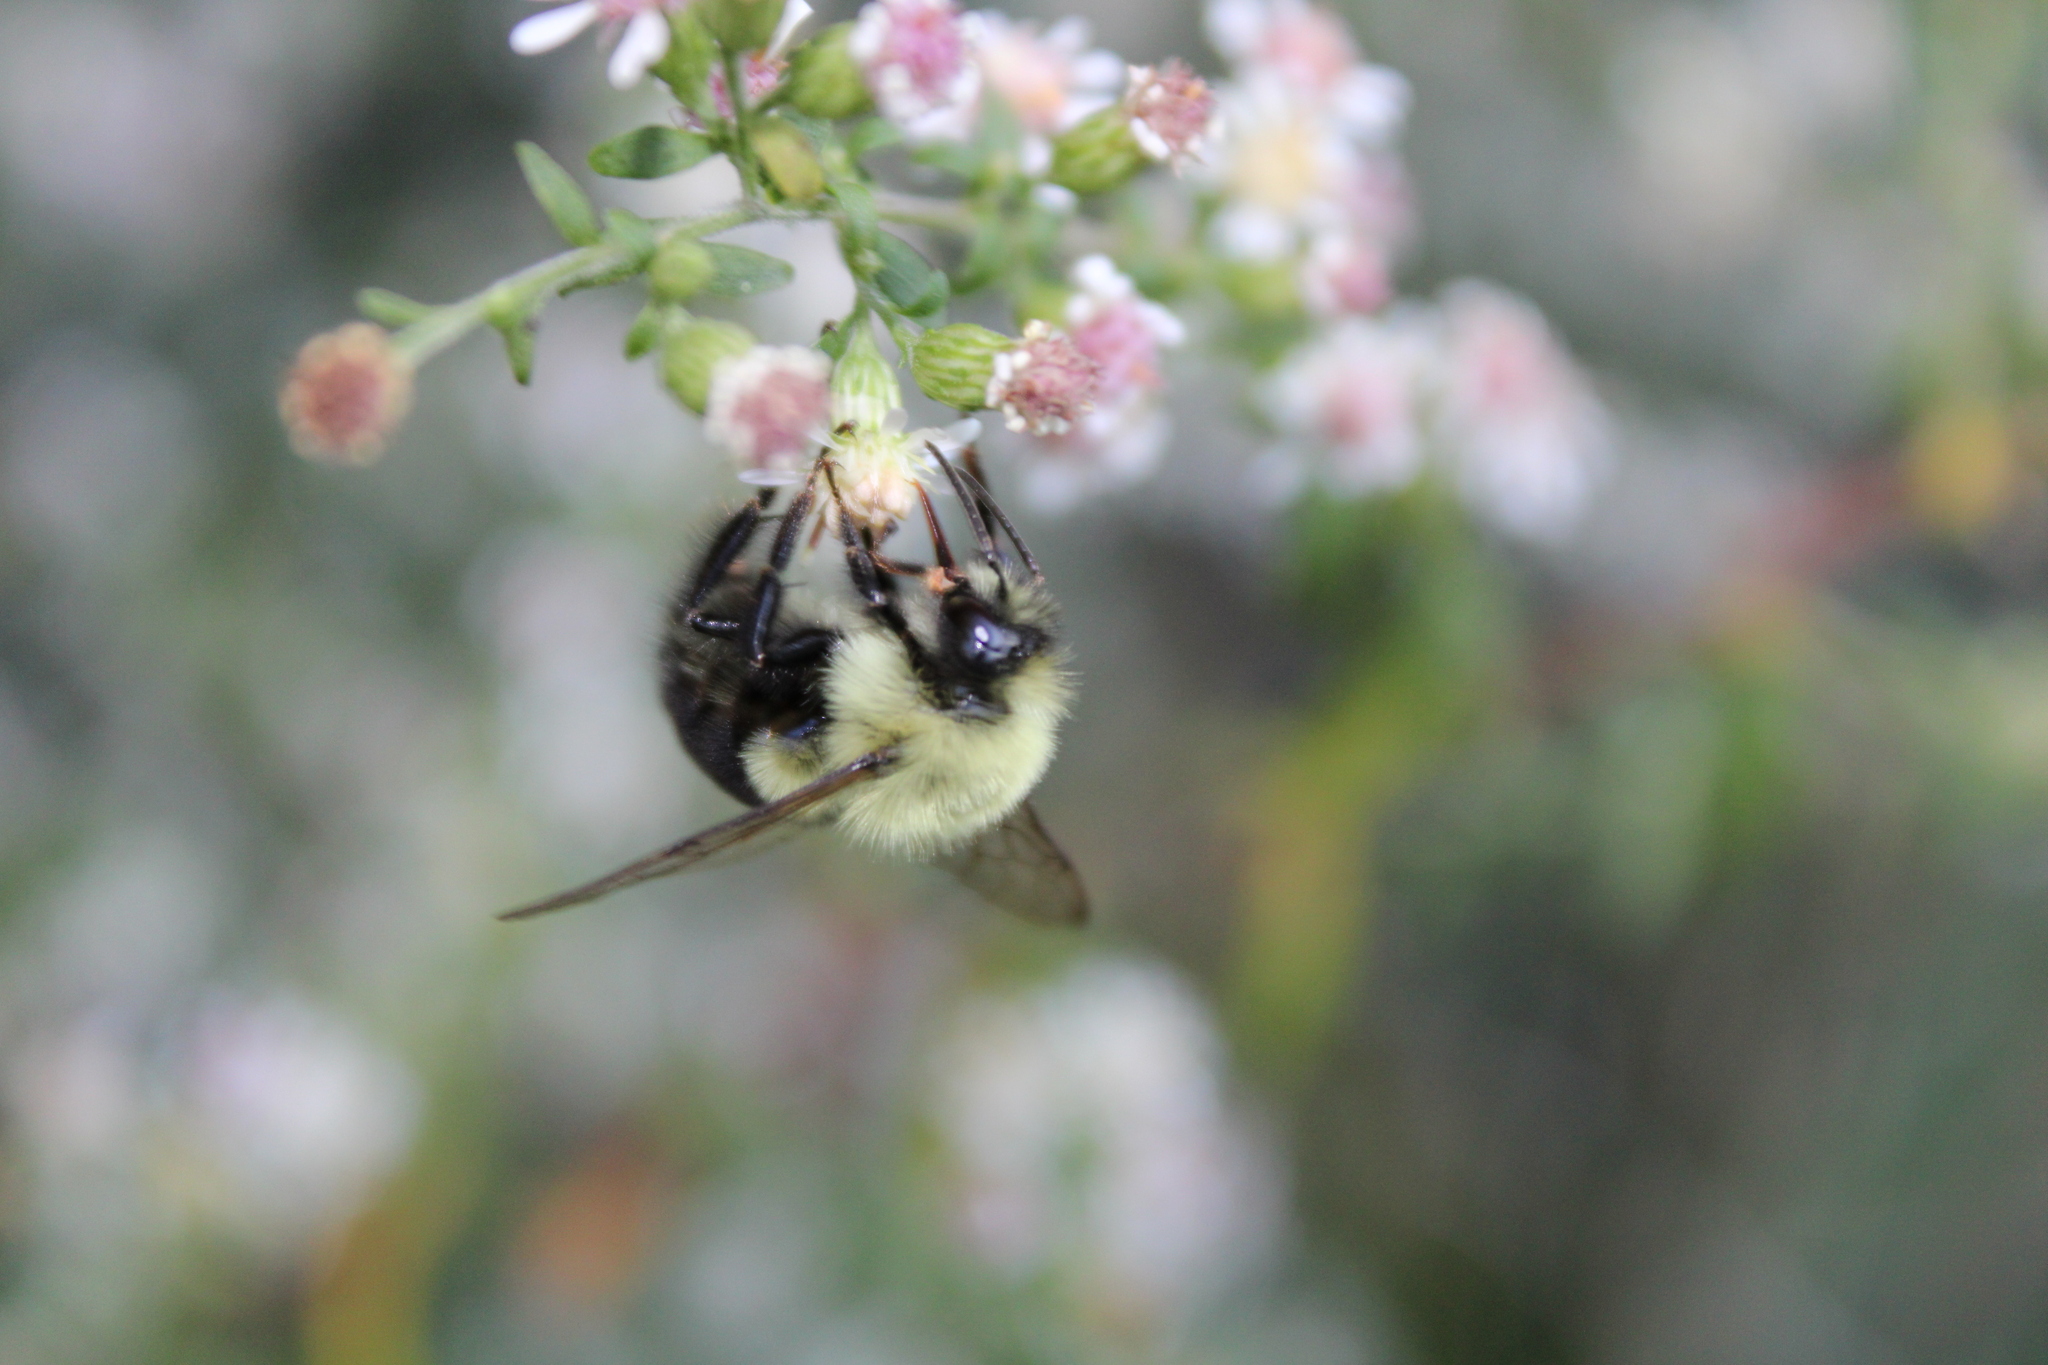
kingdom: Animalia
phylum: Arthropoda
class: Insecta
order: Hymenoptera
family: Apidae
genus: Bombus
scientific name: Bombus impatiens
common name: Common eastern bumble bee
